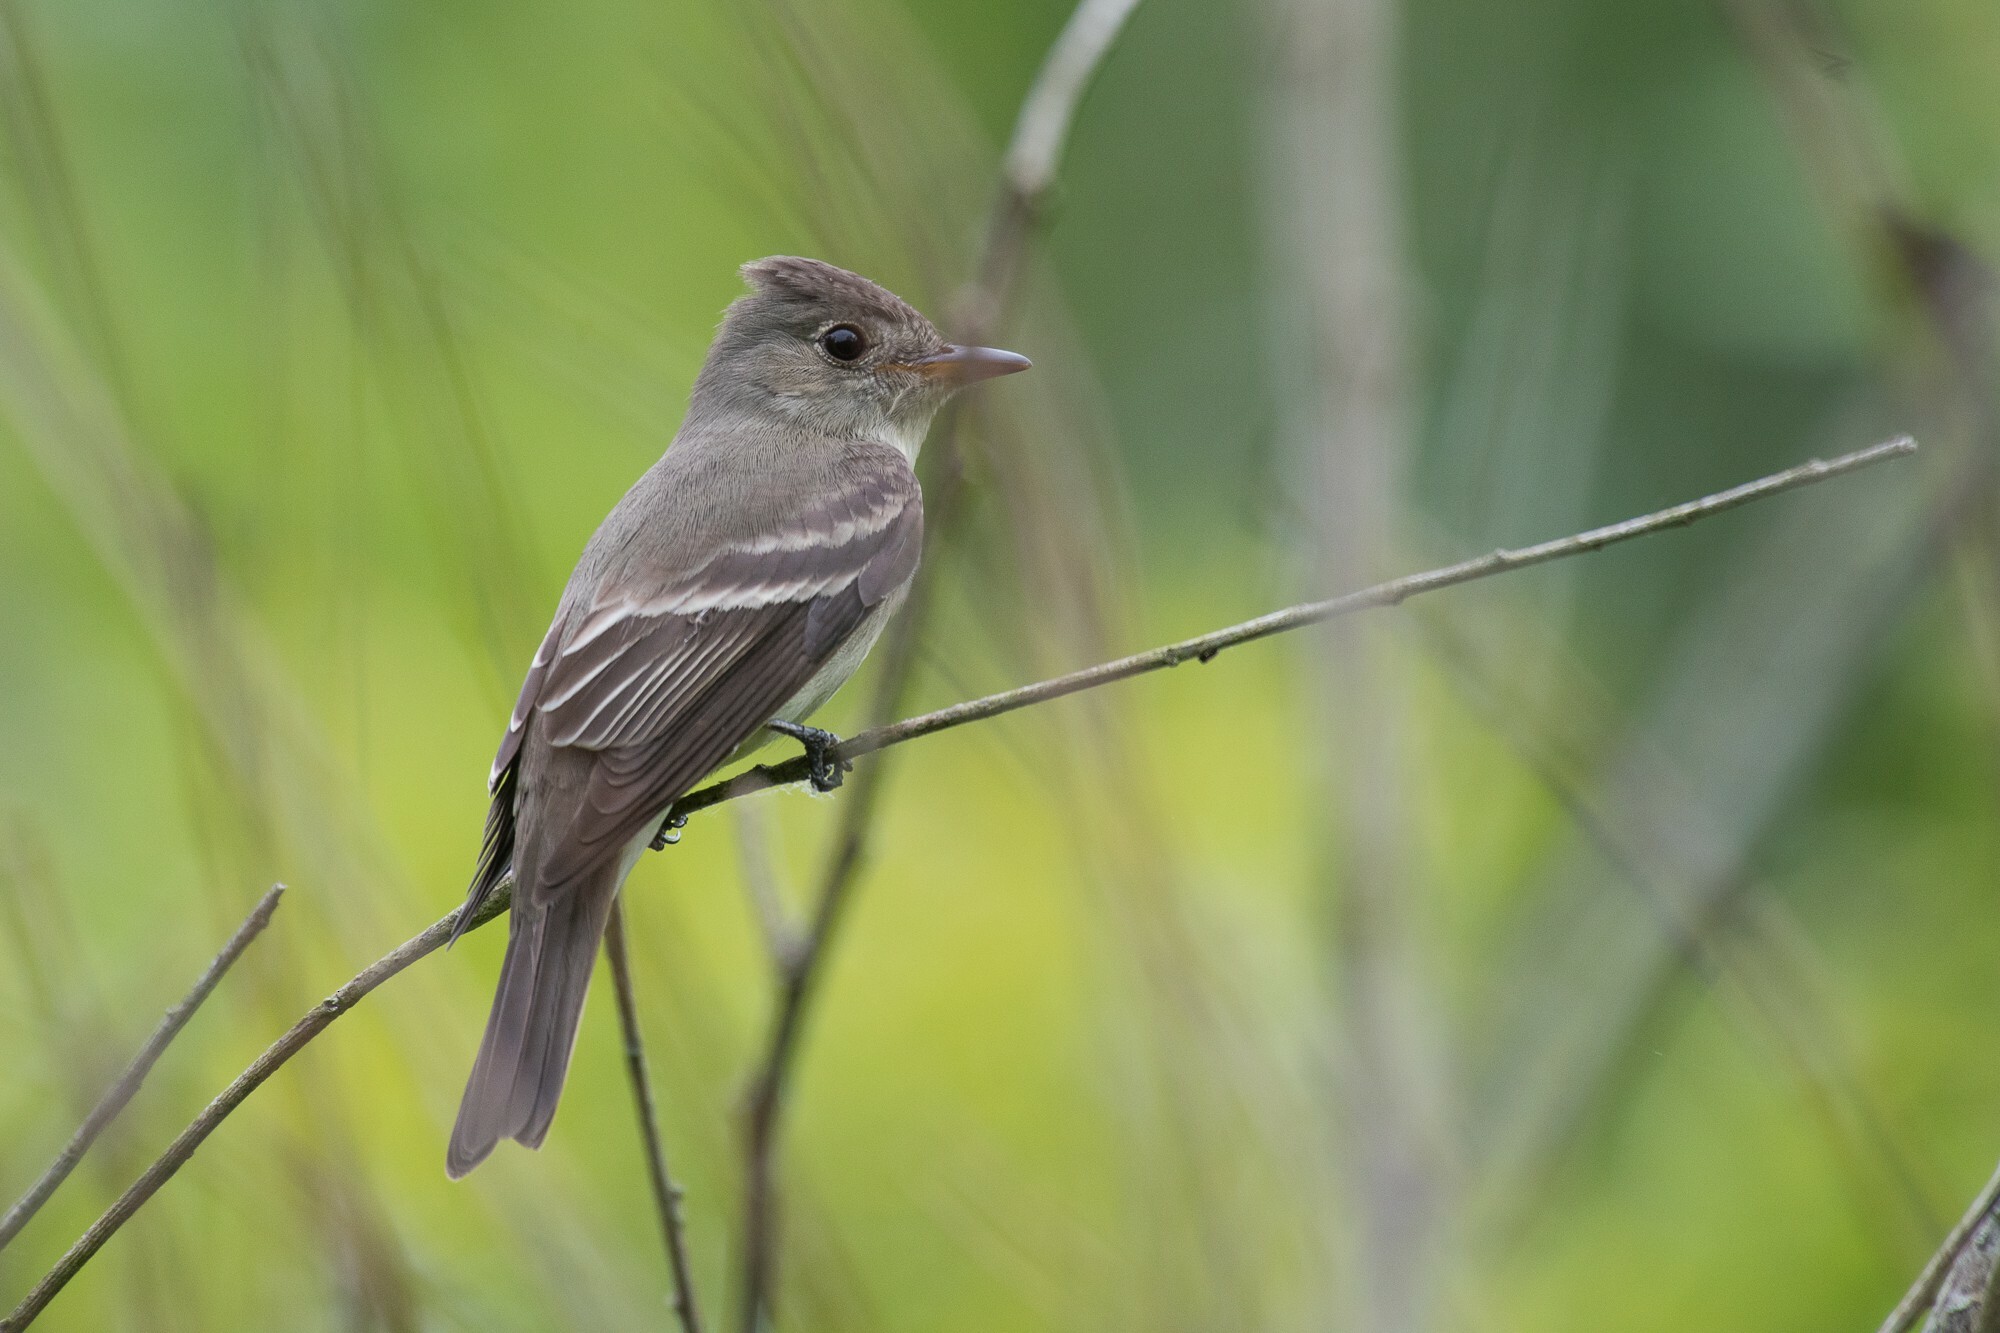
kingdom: Animalia
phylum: Chordata
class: Aves
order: Passeriformes
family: Tyrannidae
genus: Contopus
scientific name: Contopus virens
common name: Eastern wood-pewee
